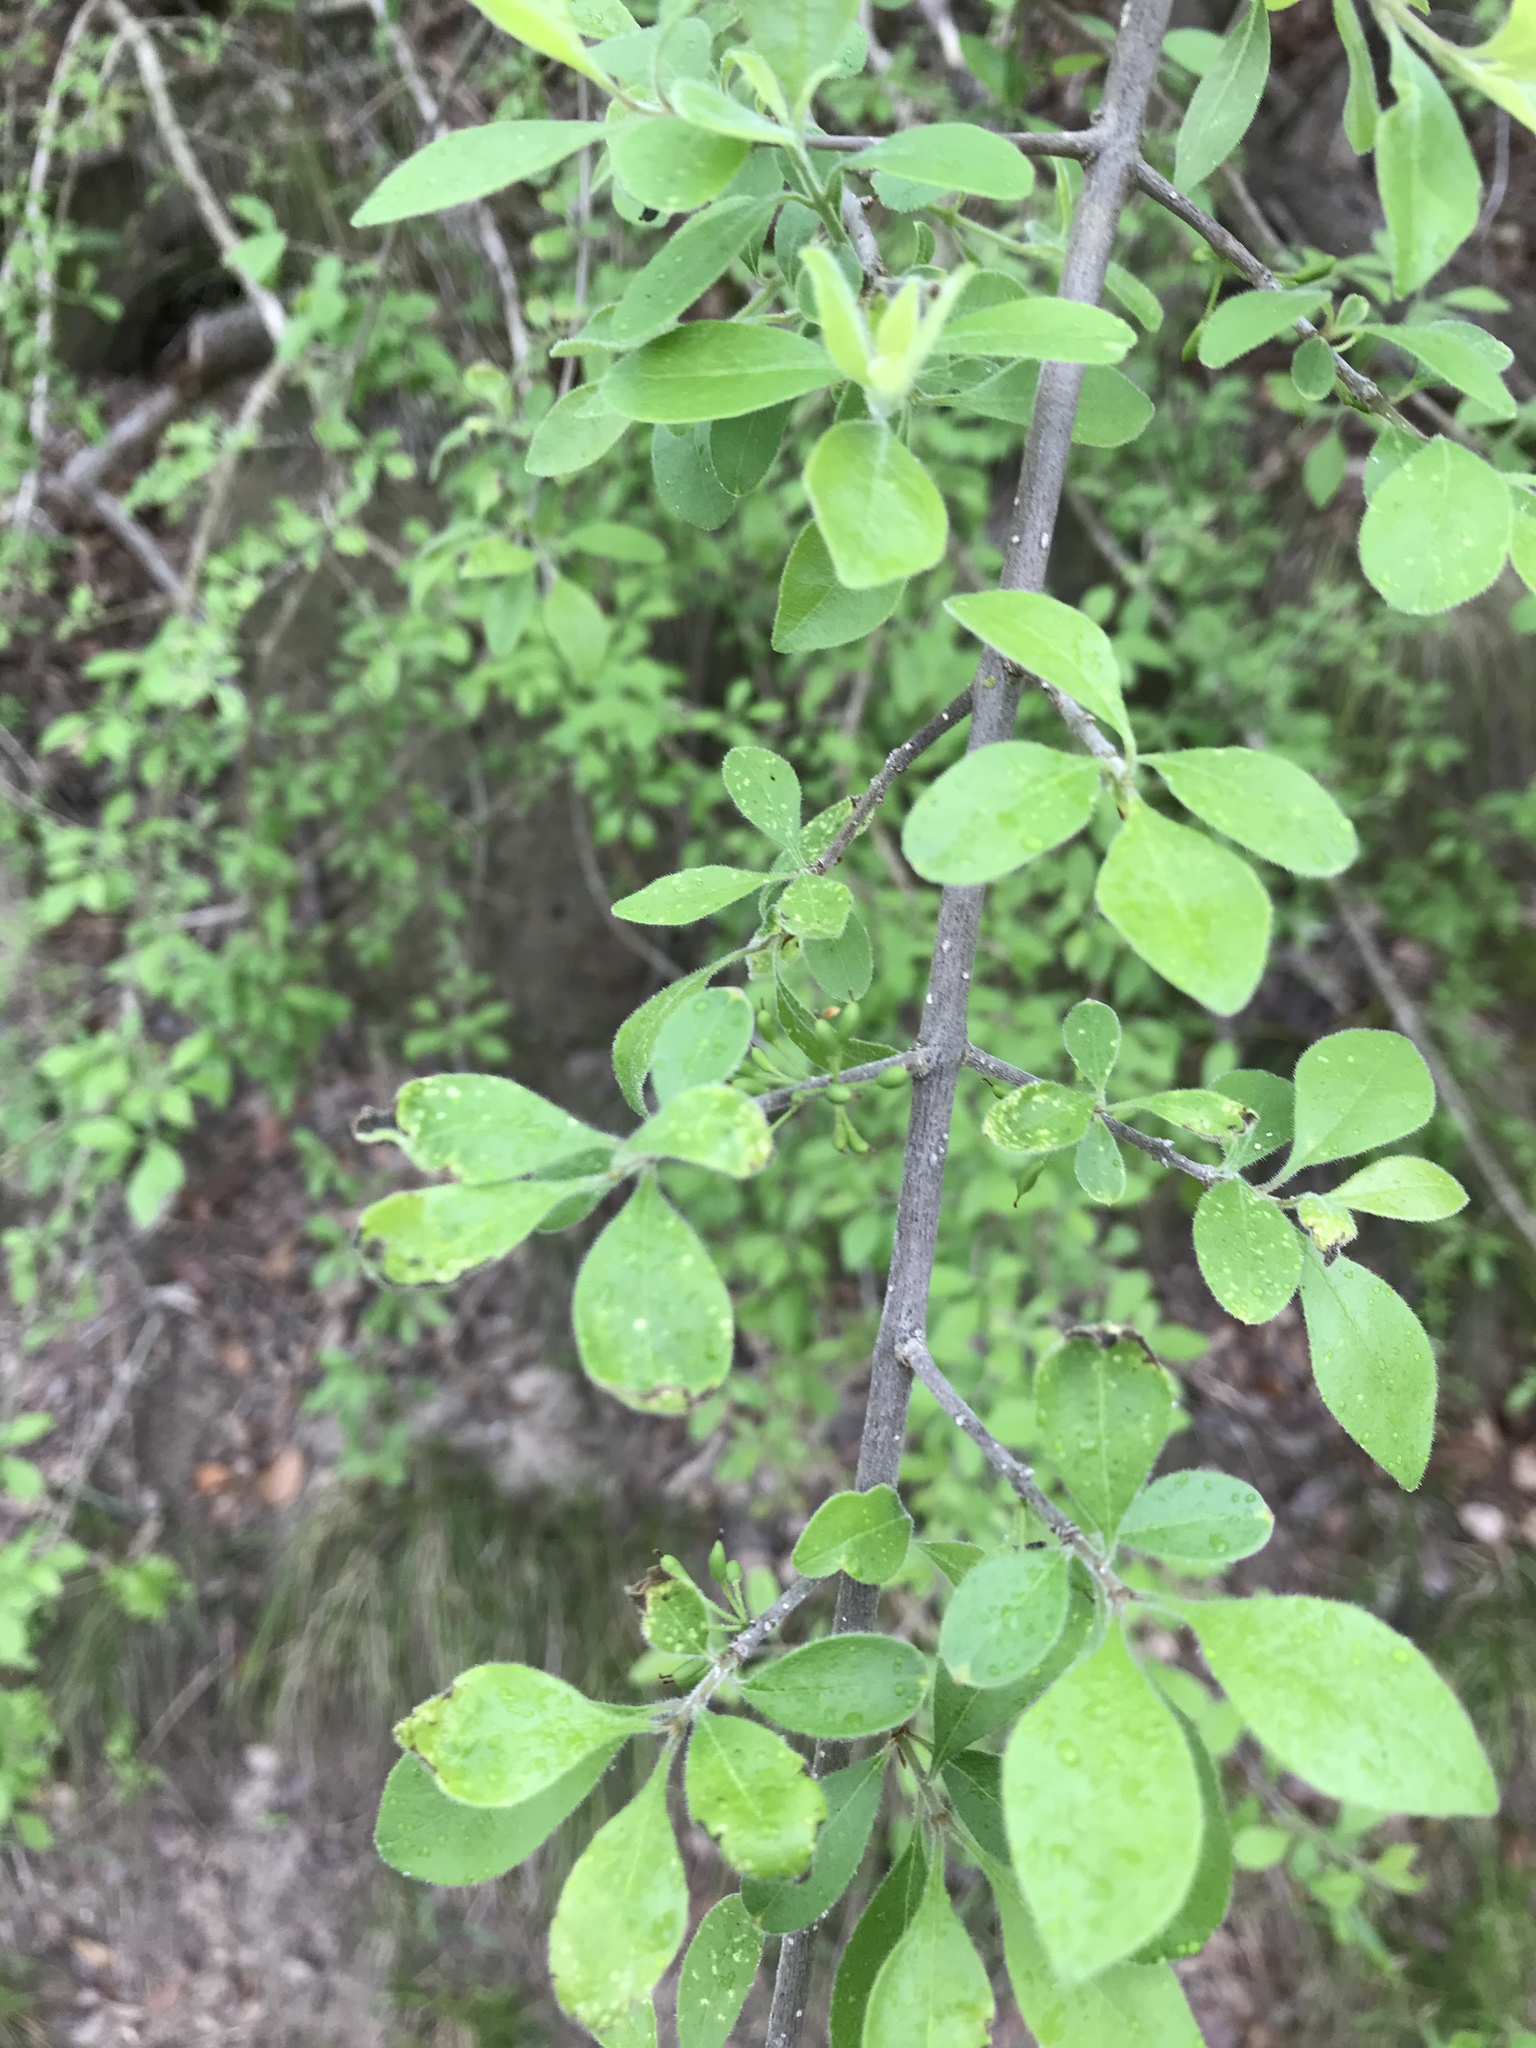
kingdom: Plantae
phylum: Tracheophyta
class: Magnoliopsida
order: Lamiales
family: Oleaceae
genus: Forestiera
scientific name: Forestiera pubescens
